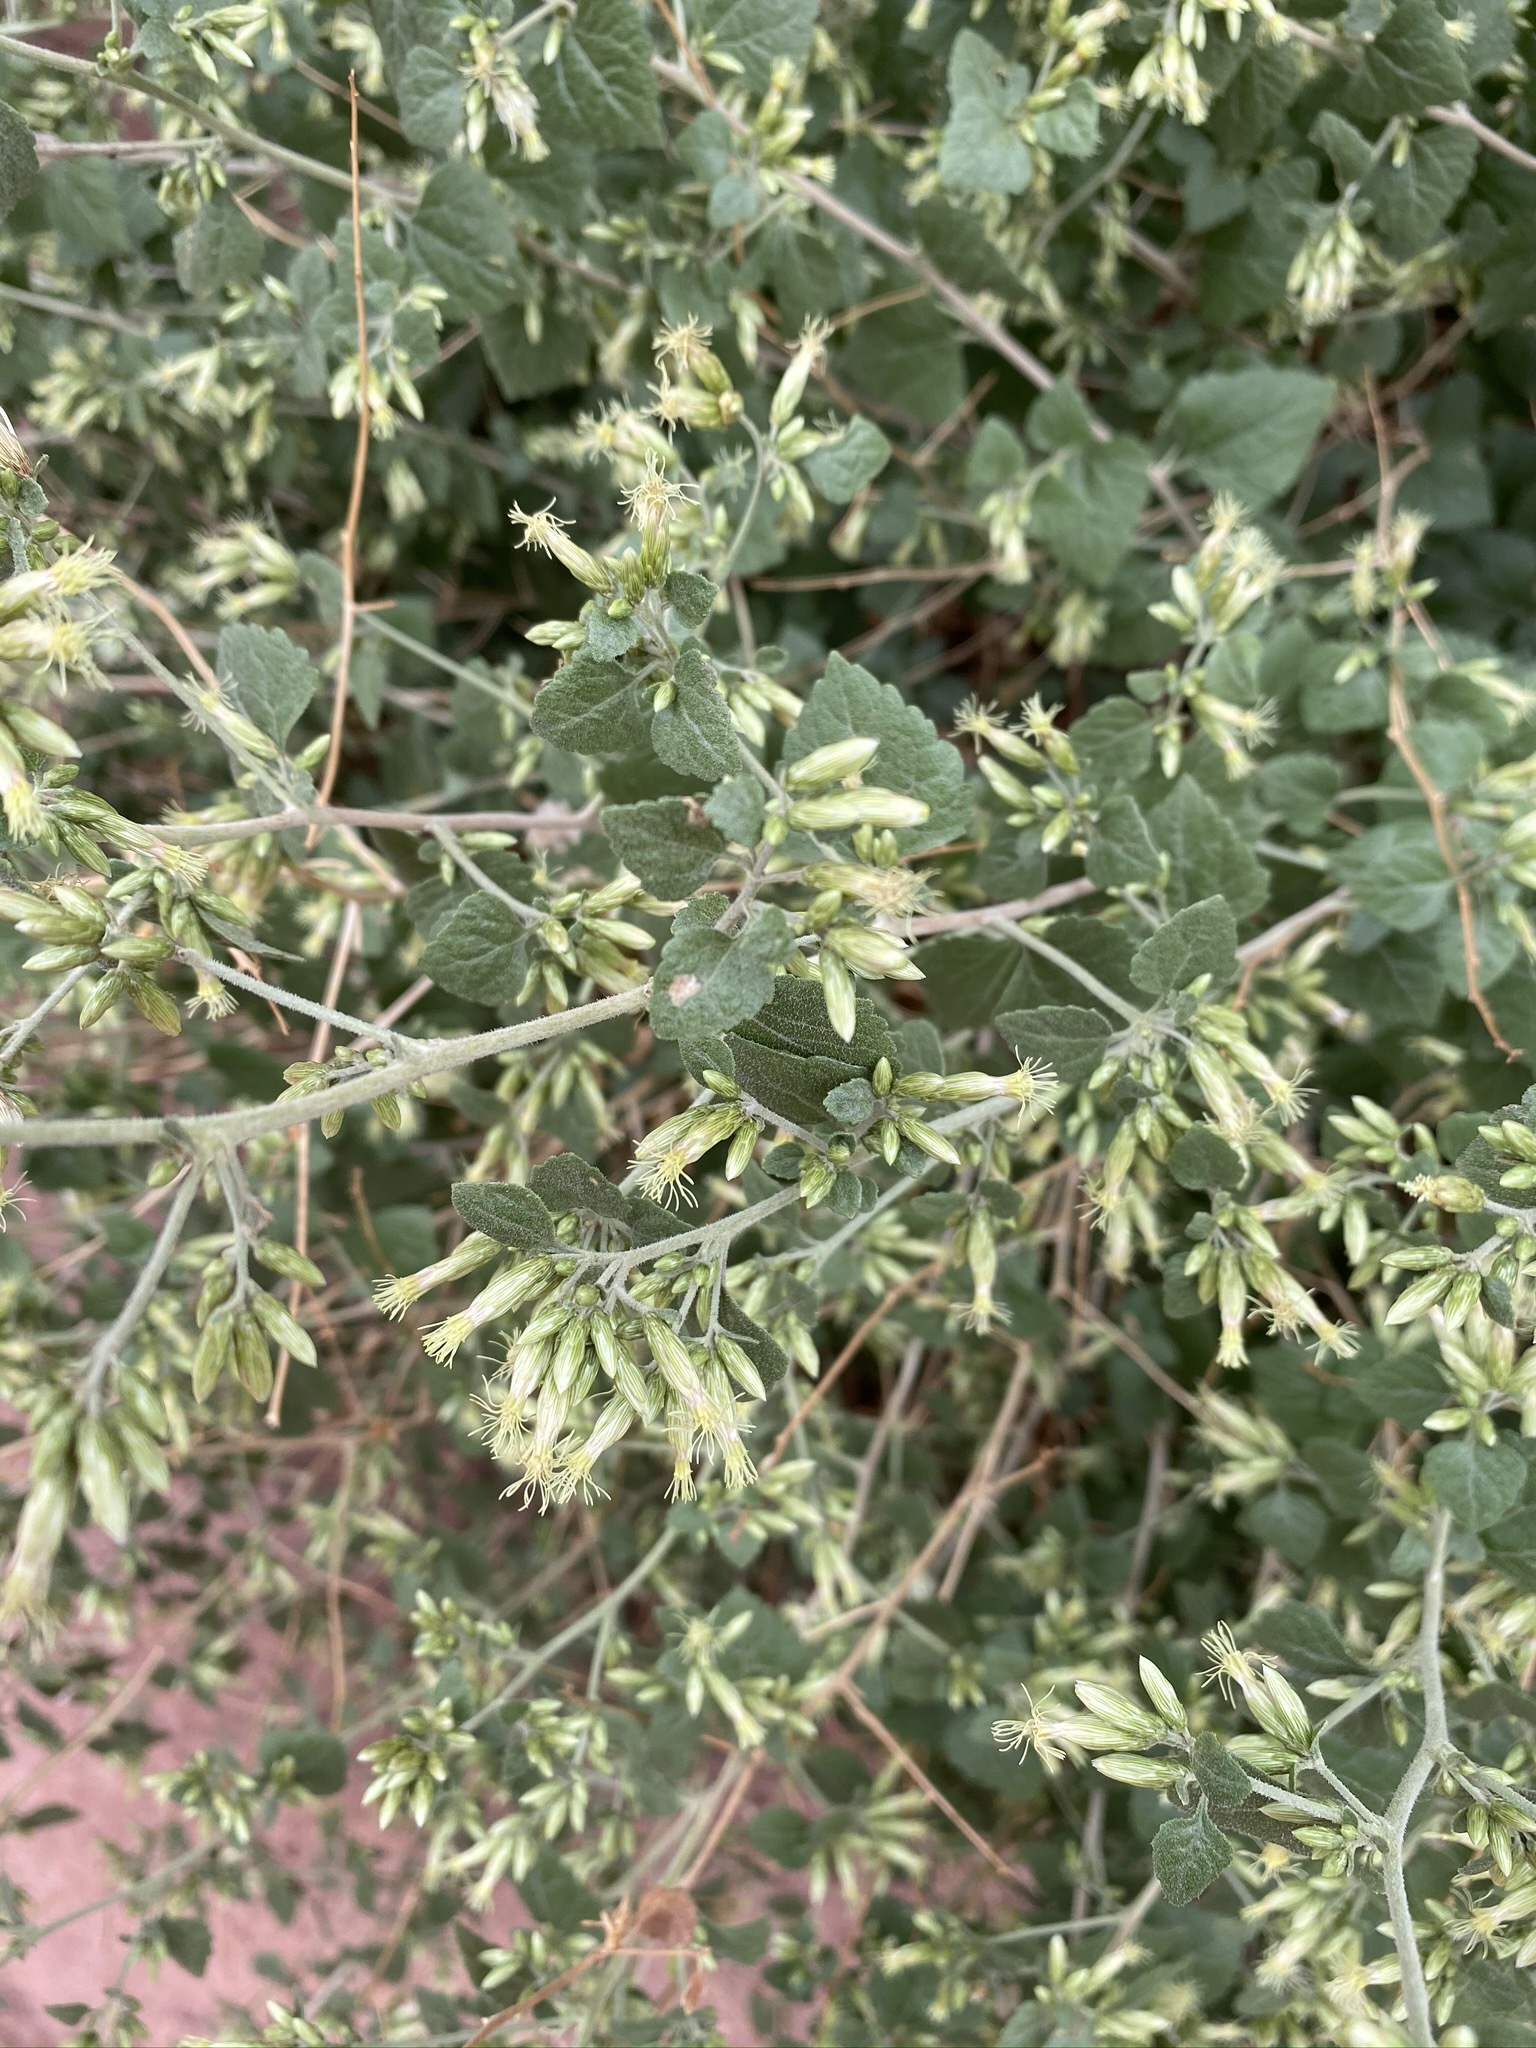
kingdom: Plantae
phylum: Tracheophyta
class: Magnoliopsida
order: Asterales
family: Asteraceae
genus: Brickellia
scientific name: Brickellia californica
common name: California brickellbush
